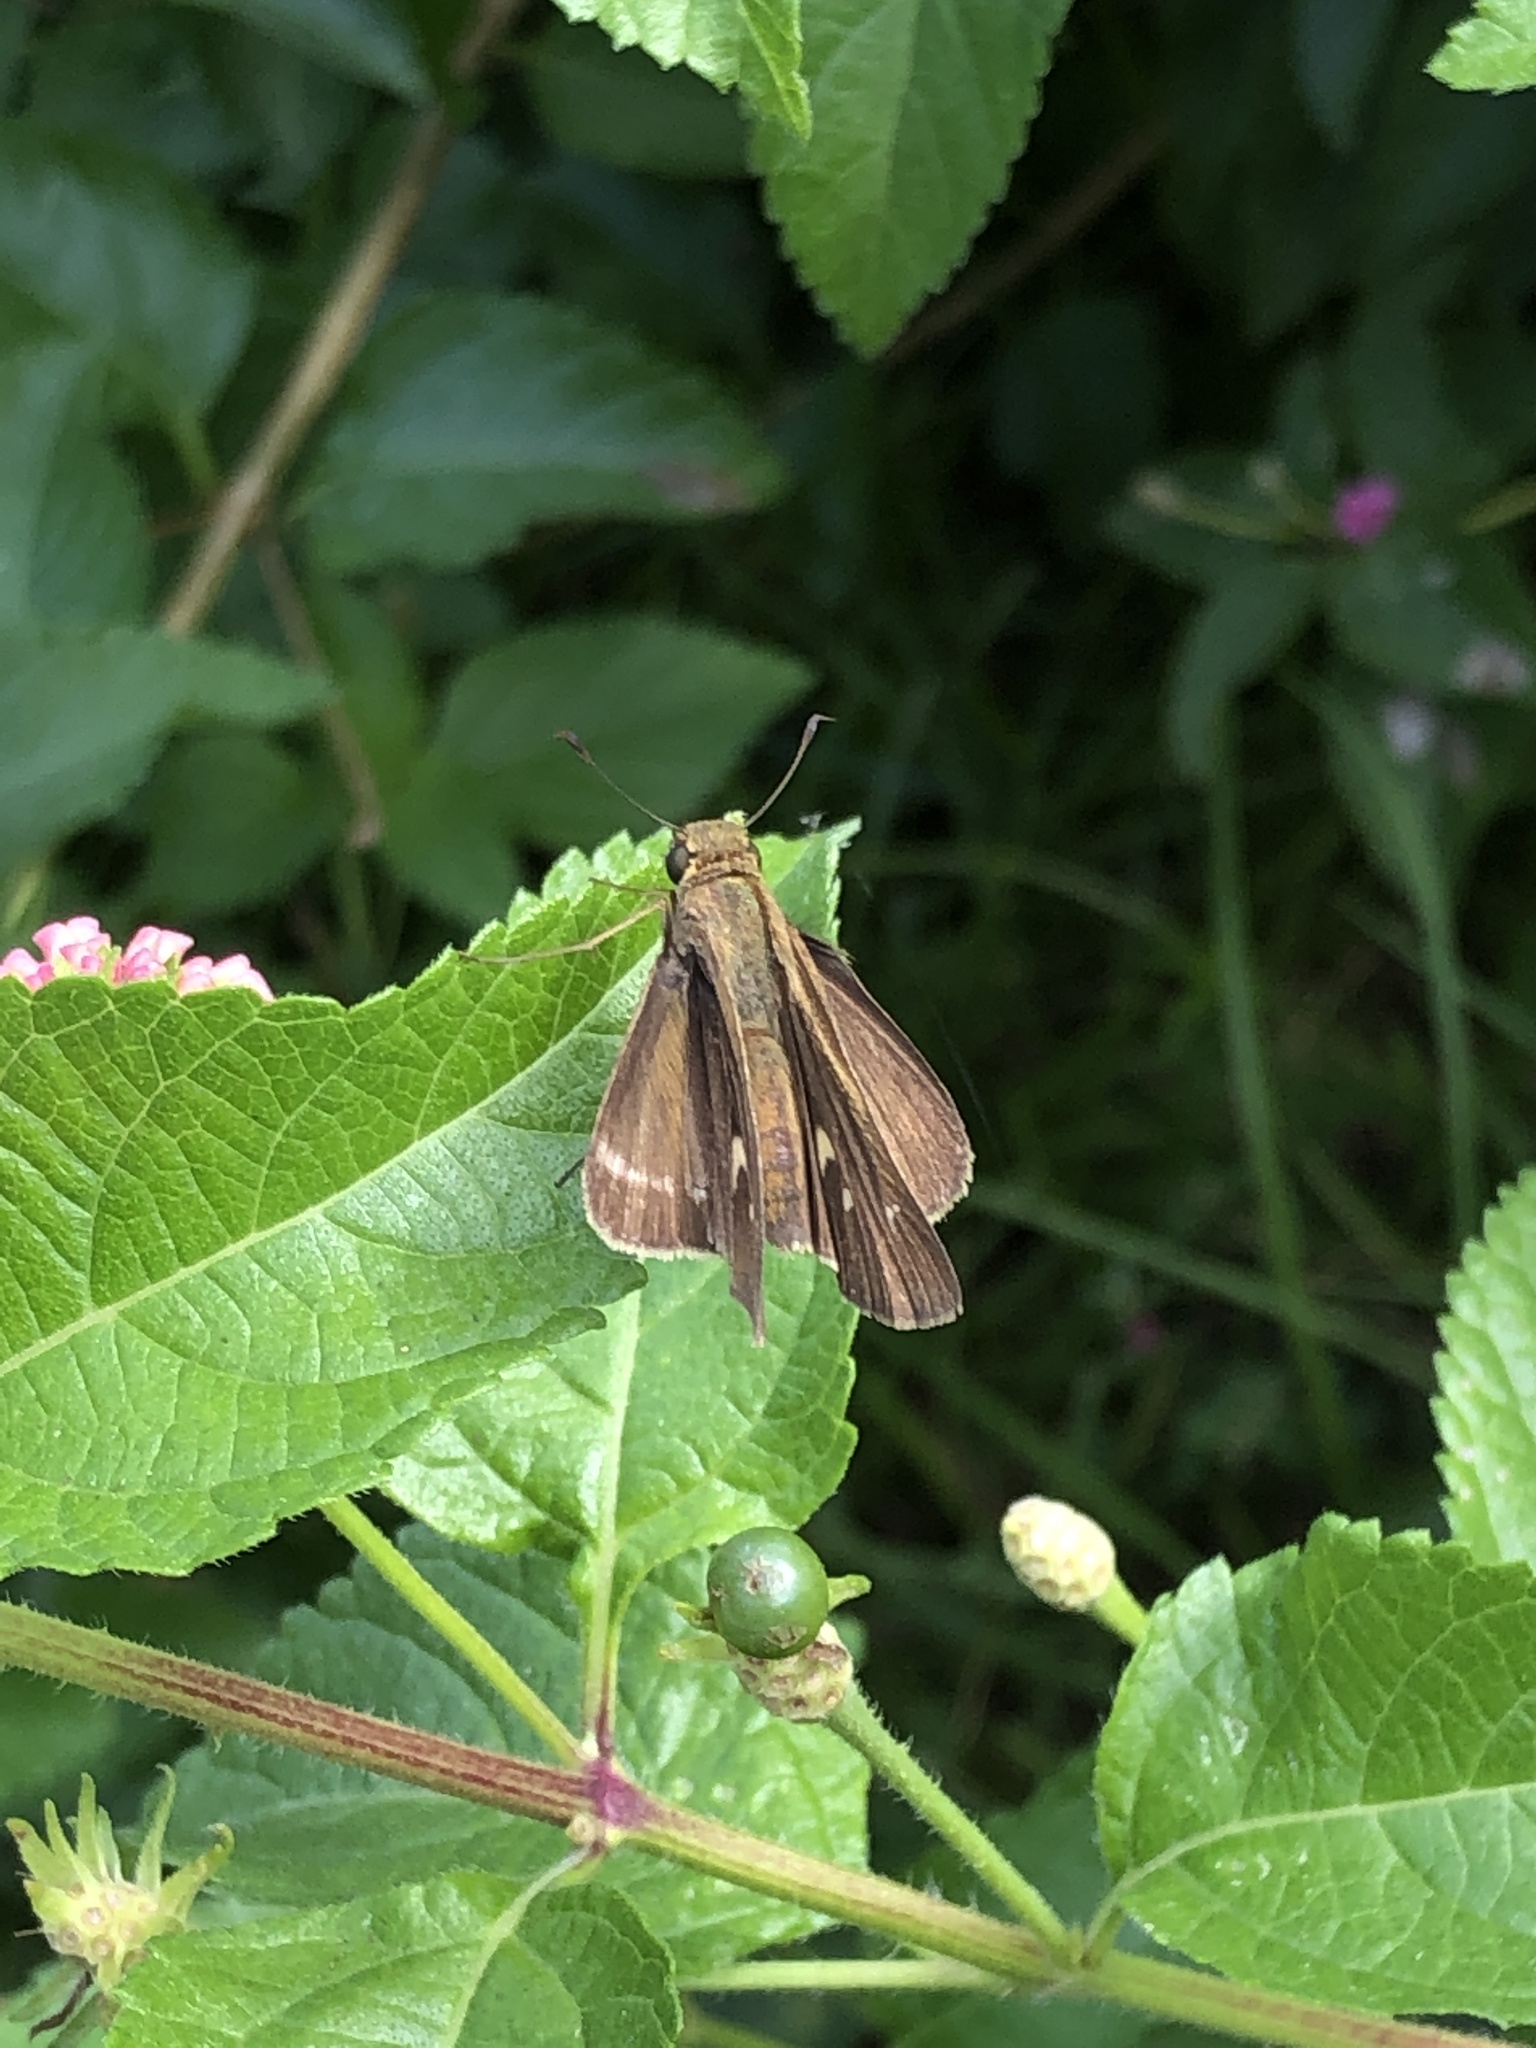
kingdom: Animalia
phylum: Arthropoda
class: Insecta
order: Lepidoptera
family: Hesperiidae
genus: Panoquina
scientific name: Panoquina ocola
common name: Ocola skipper
